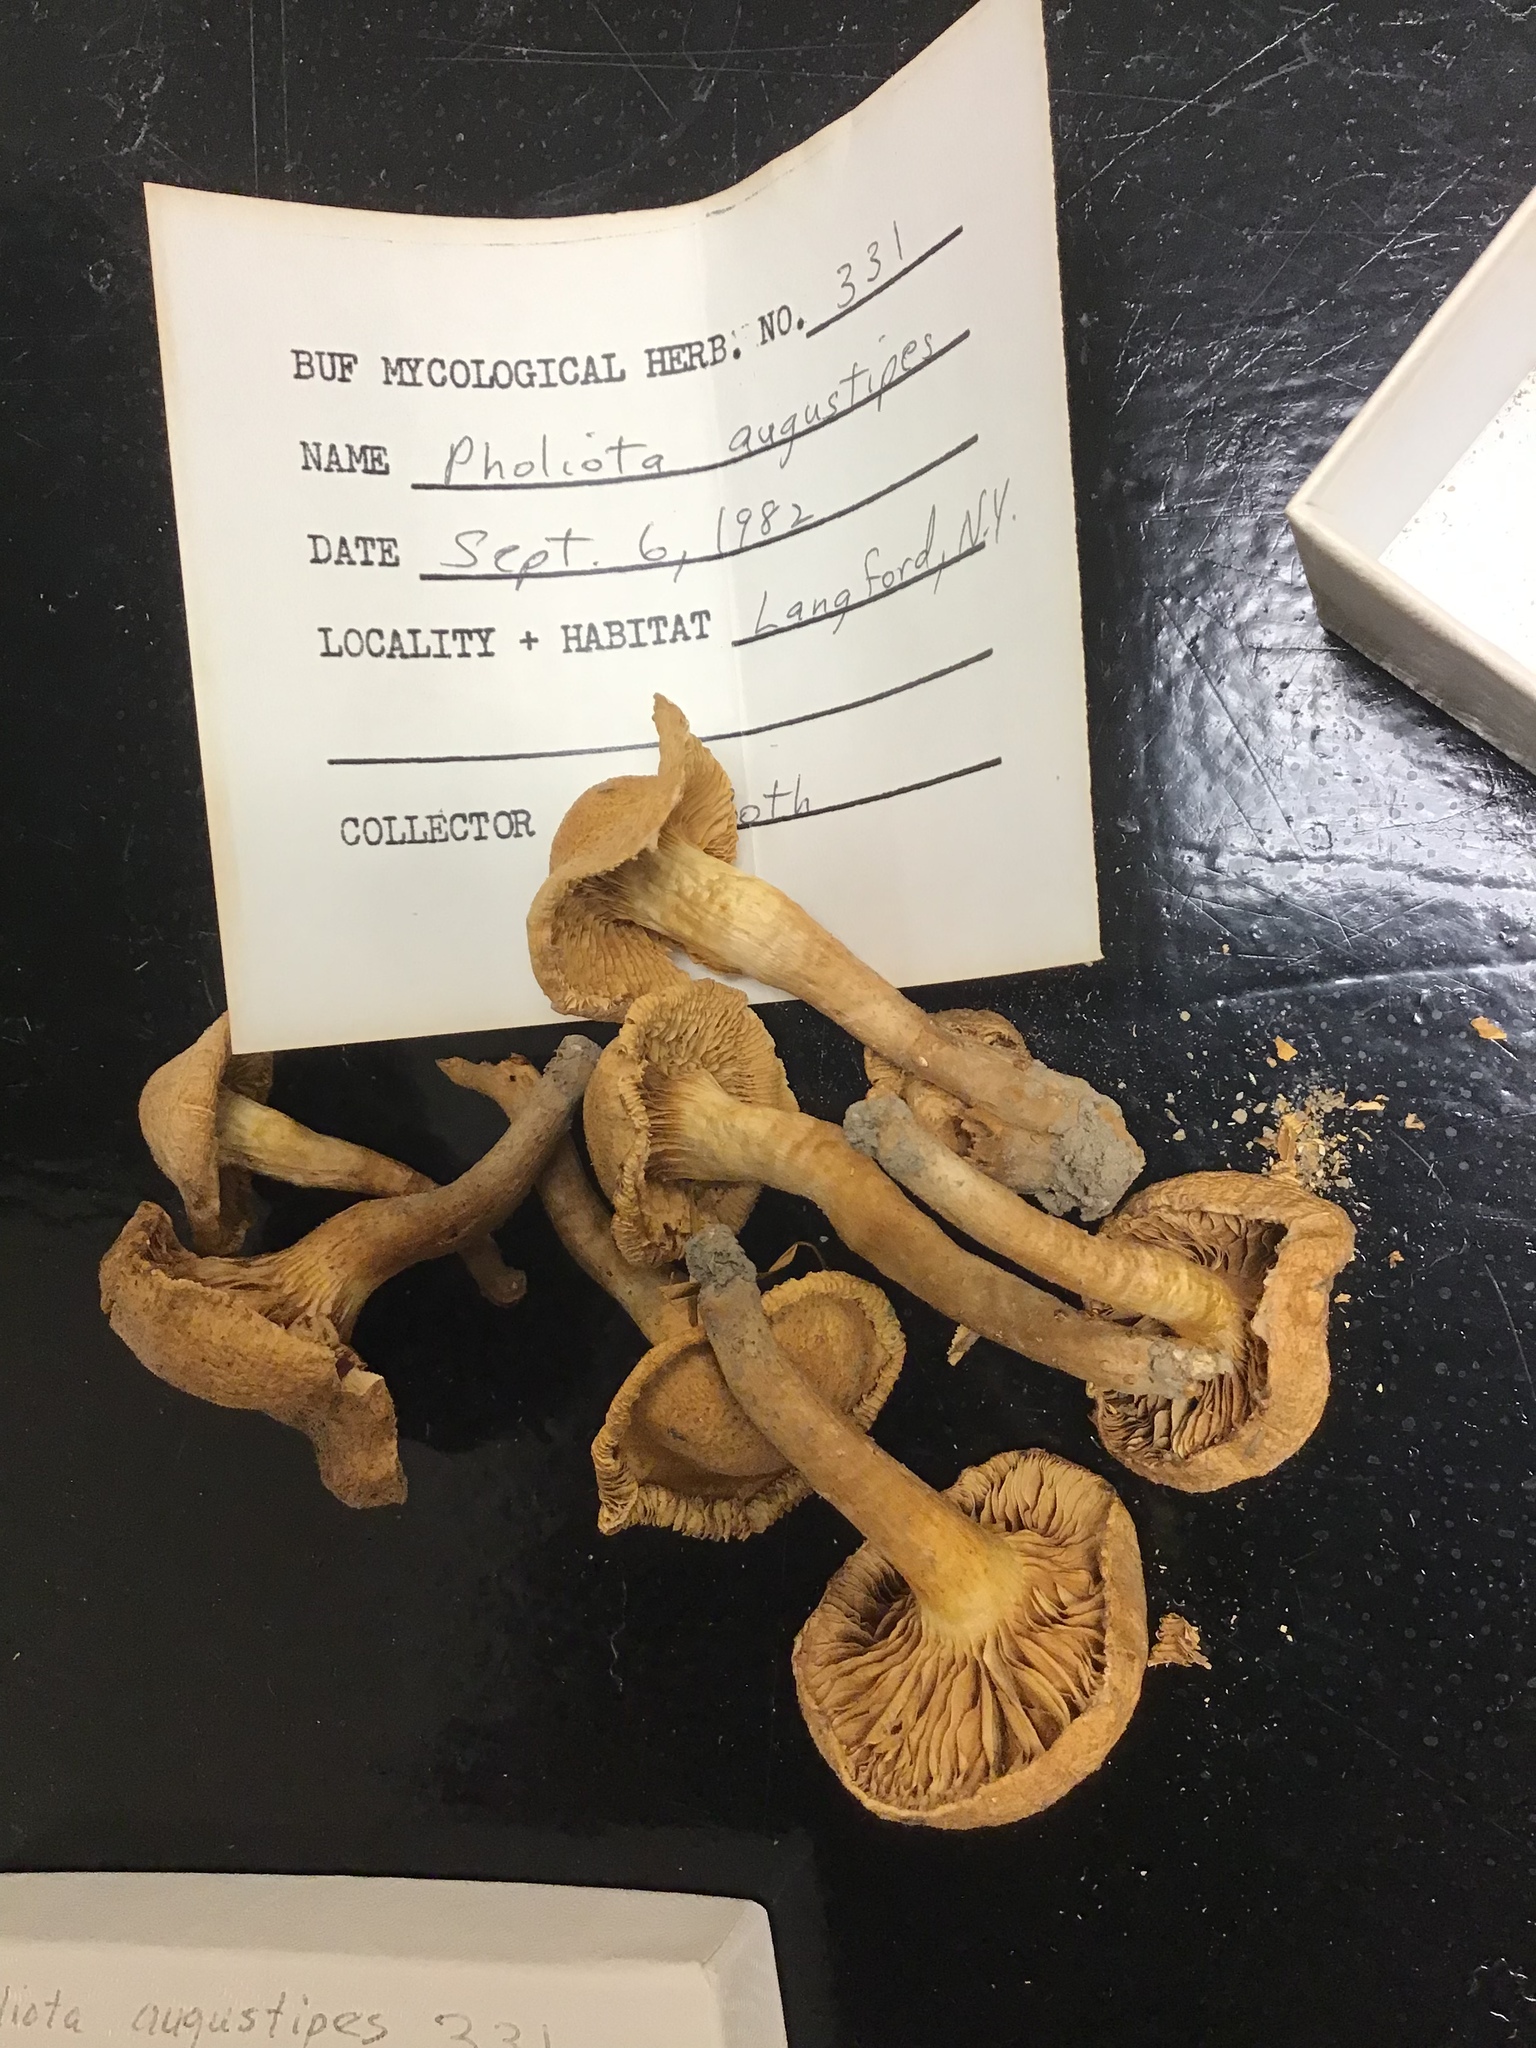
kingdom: Fungi
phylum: Basidiomycota
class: Agaricomycetes
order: Agaricales
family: Strophariaceae
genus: Pholiota
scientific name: Pholiota angustipes
